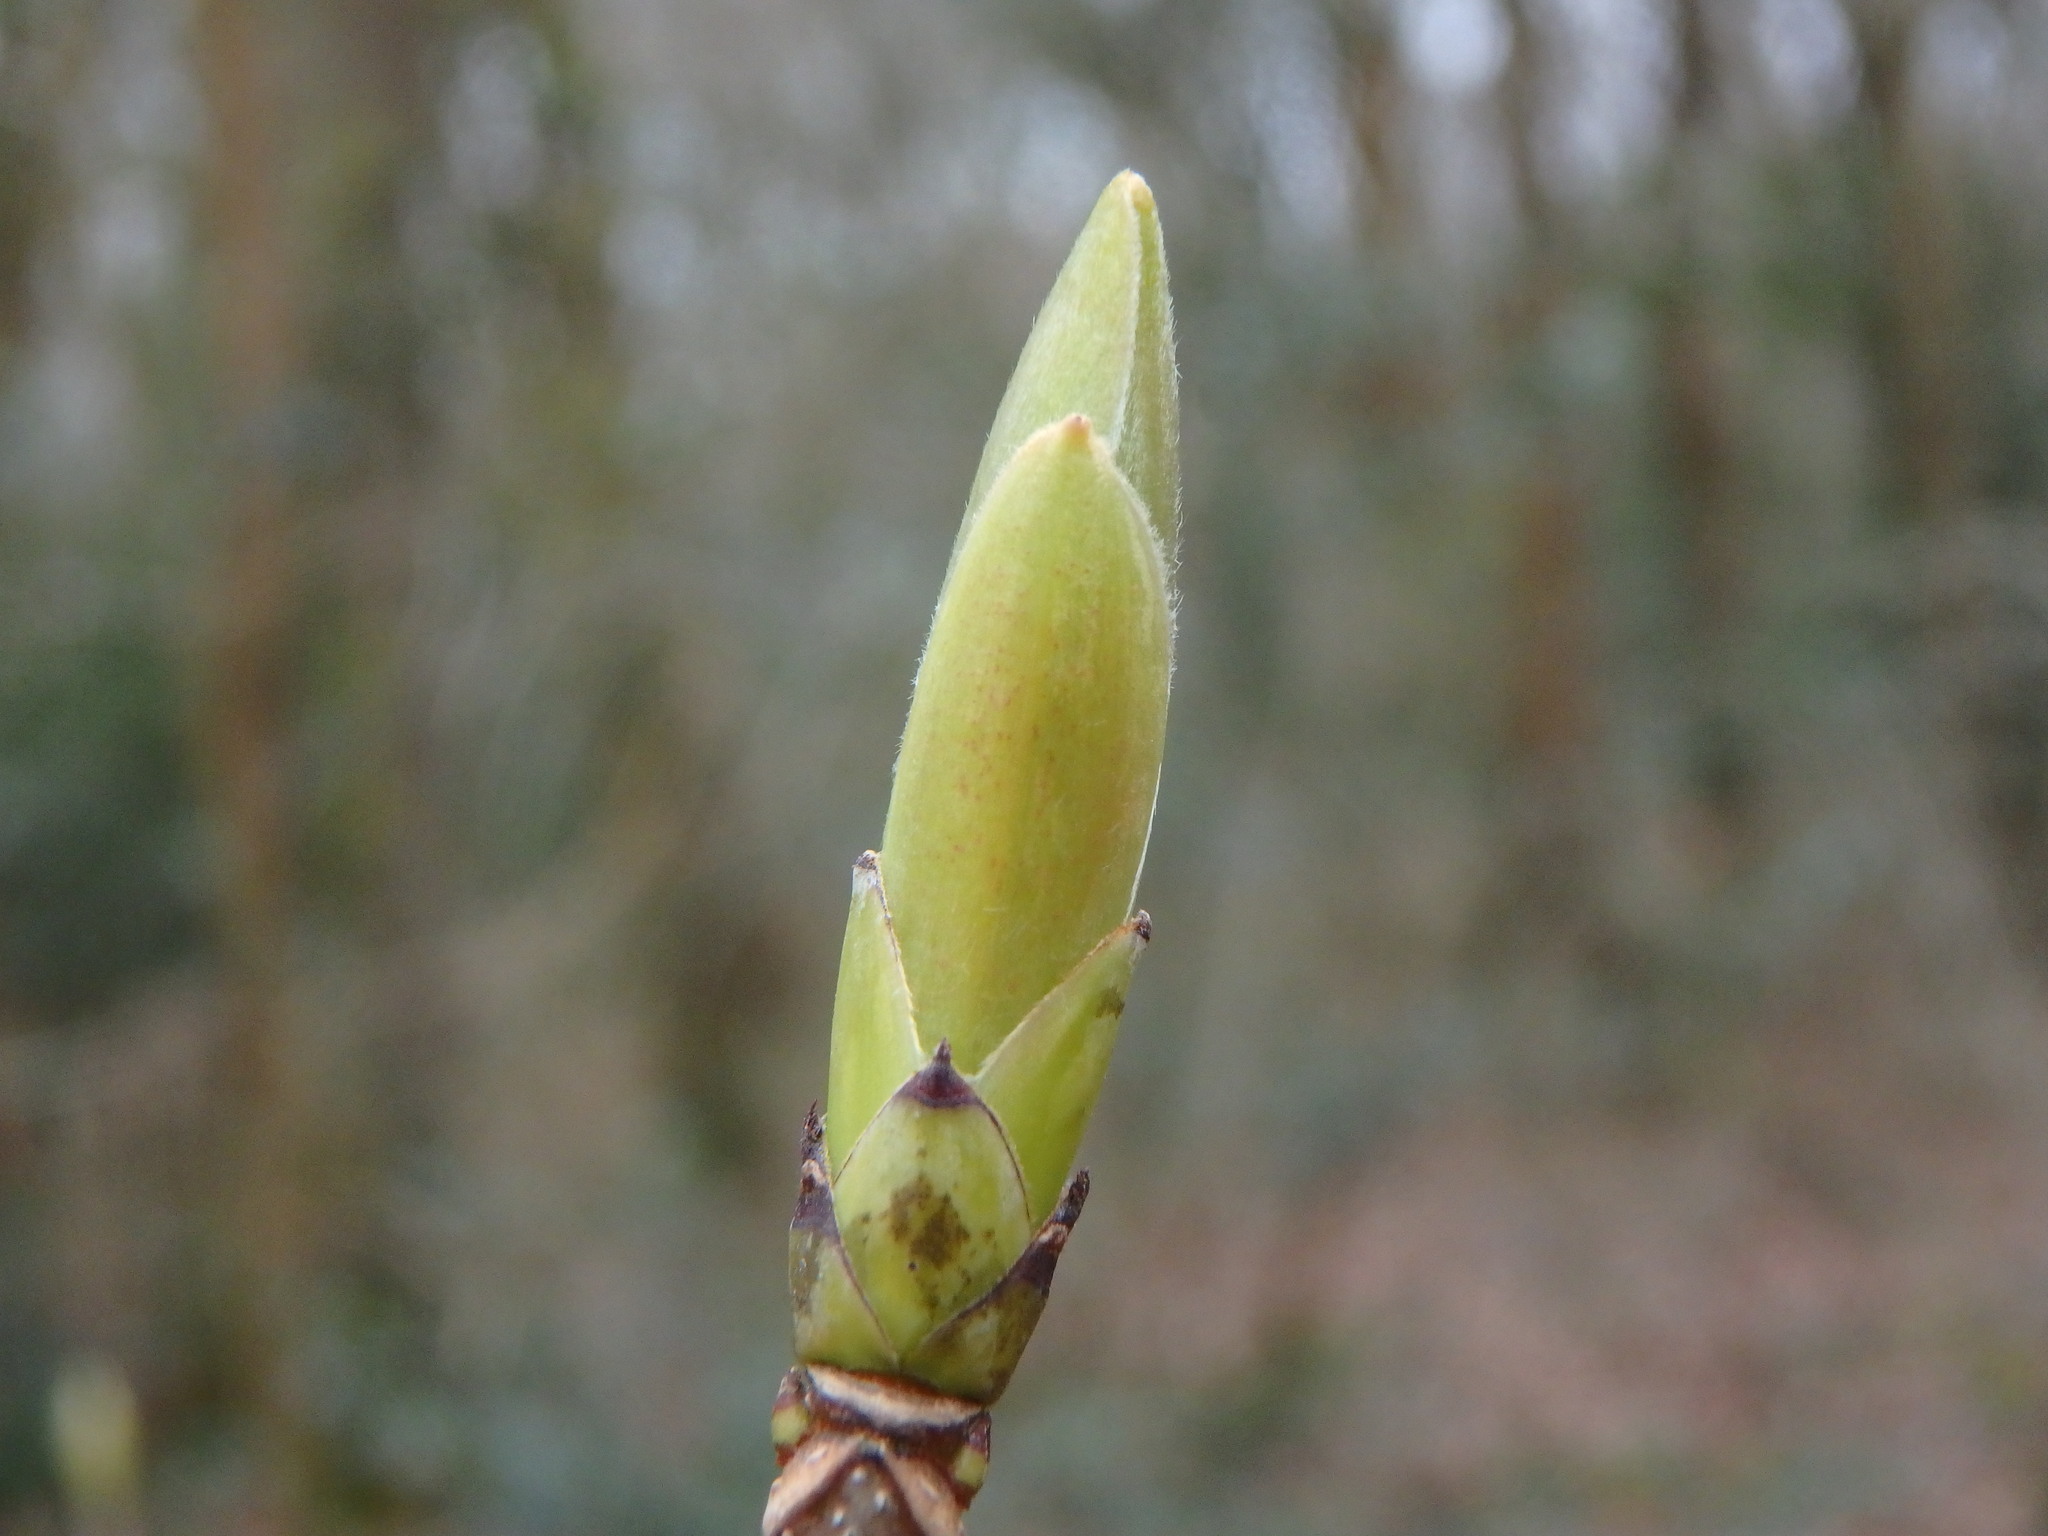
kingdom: Plantae
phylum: Tracheophyta
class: Magnoliopsida
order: Sapindales
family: Sapindaceae
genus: Acer
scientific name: Acer pseudoplatanus
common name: Sycamore
